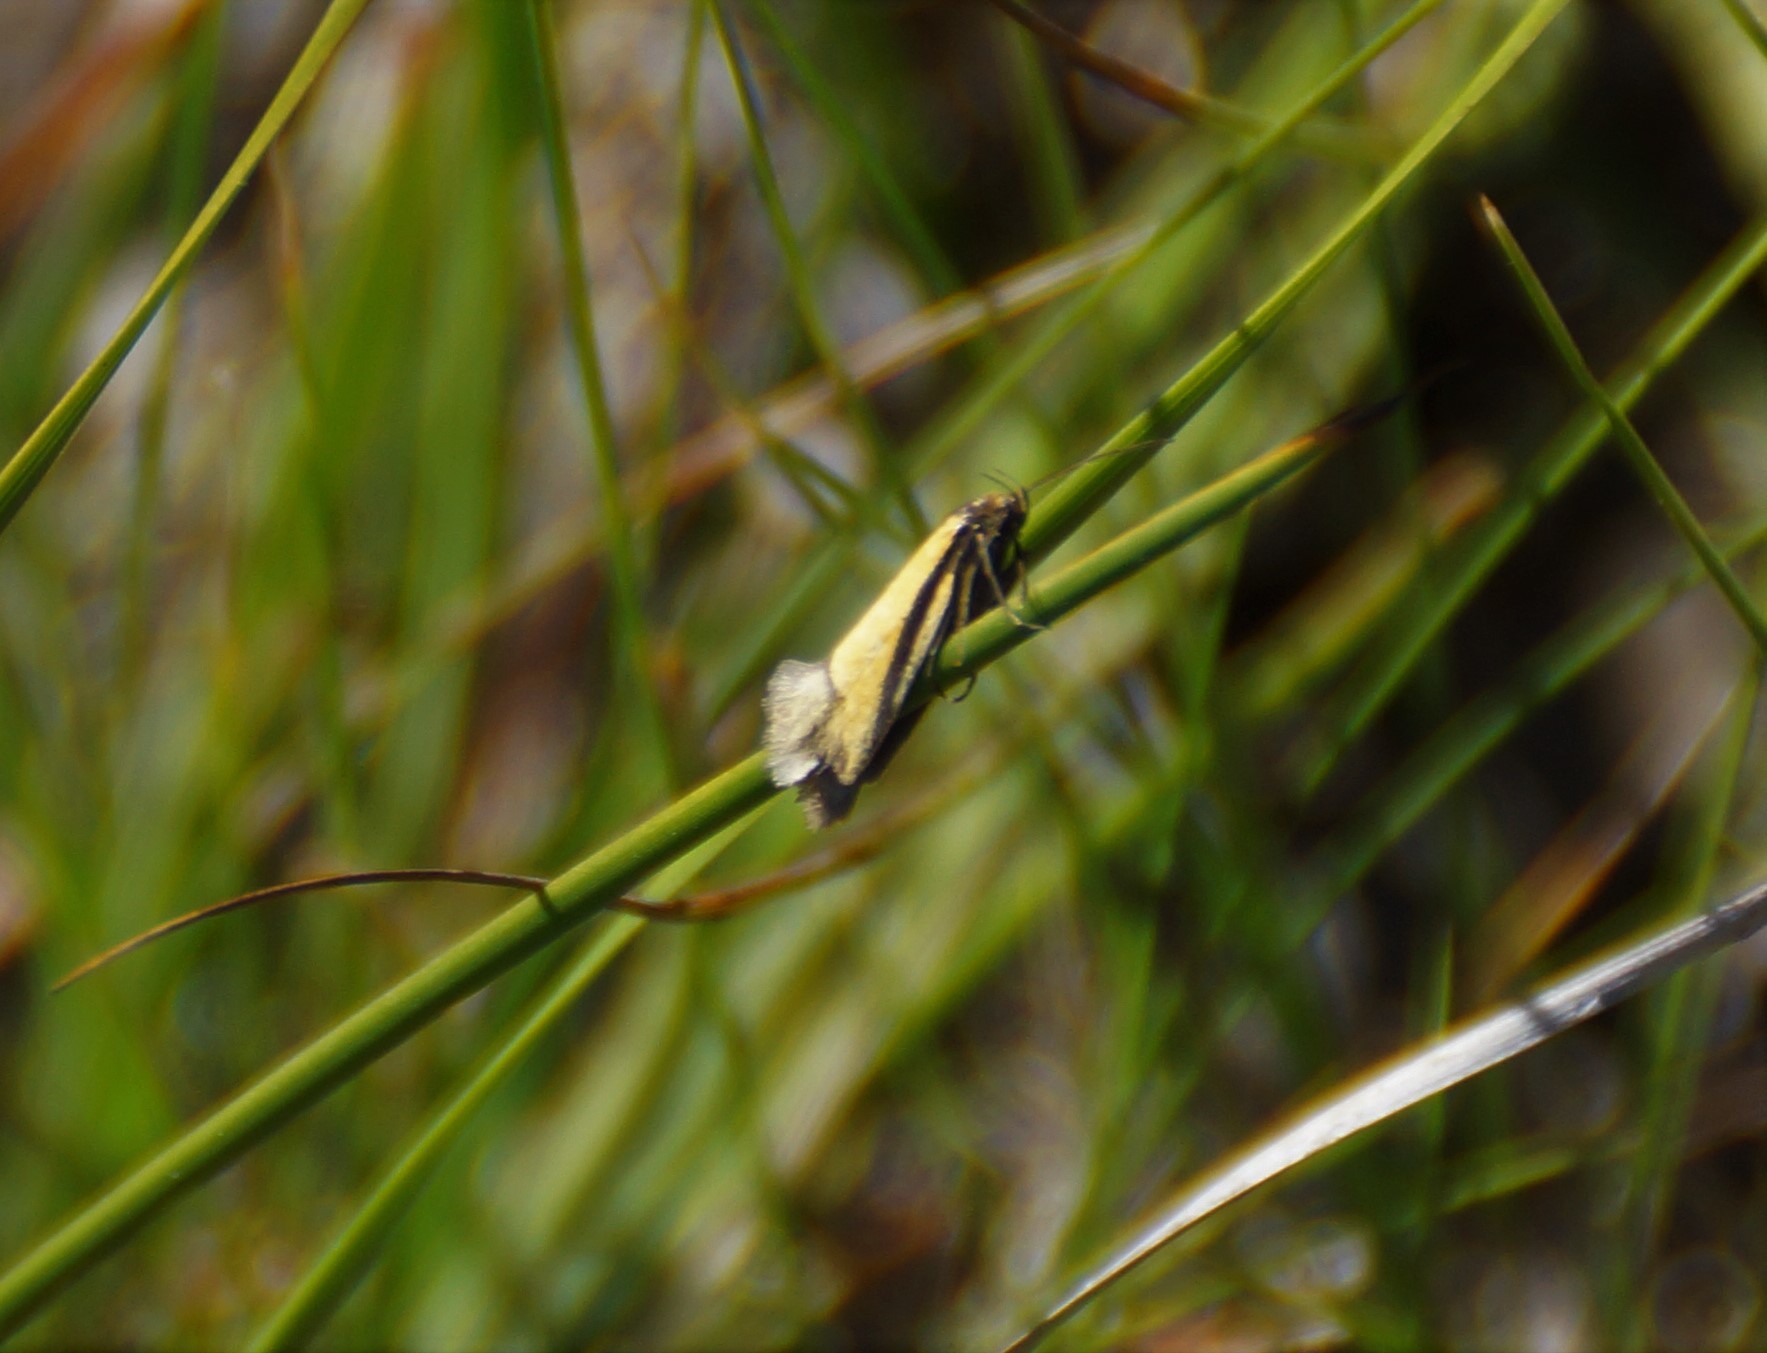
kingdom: Animalia
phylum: Arthropoda
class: Insecta
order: Lepidoptera
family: Oecophoridae
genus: Philobota
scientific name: Philobota arabella
